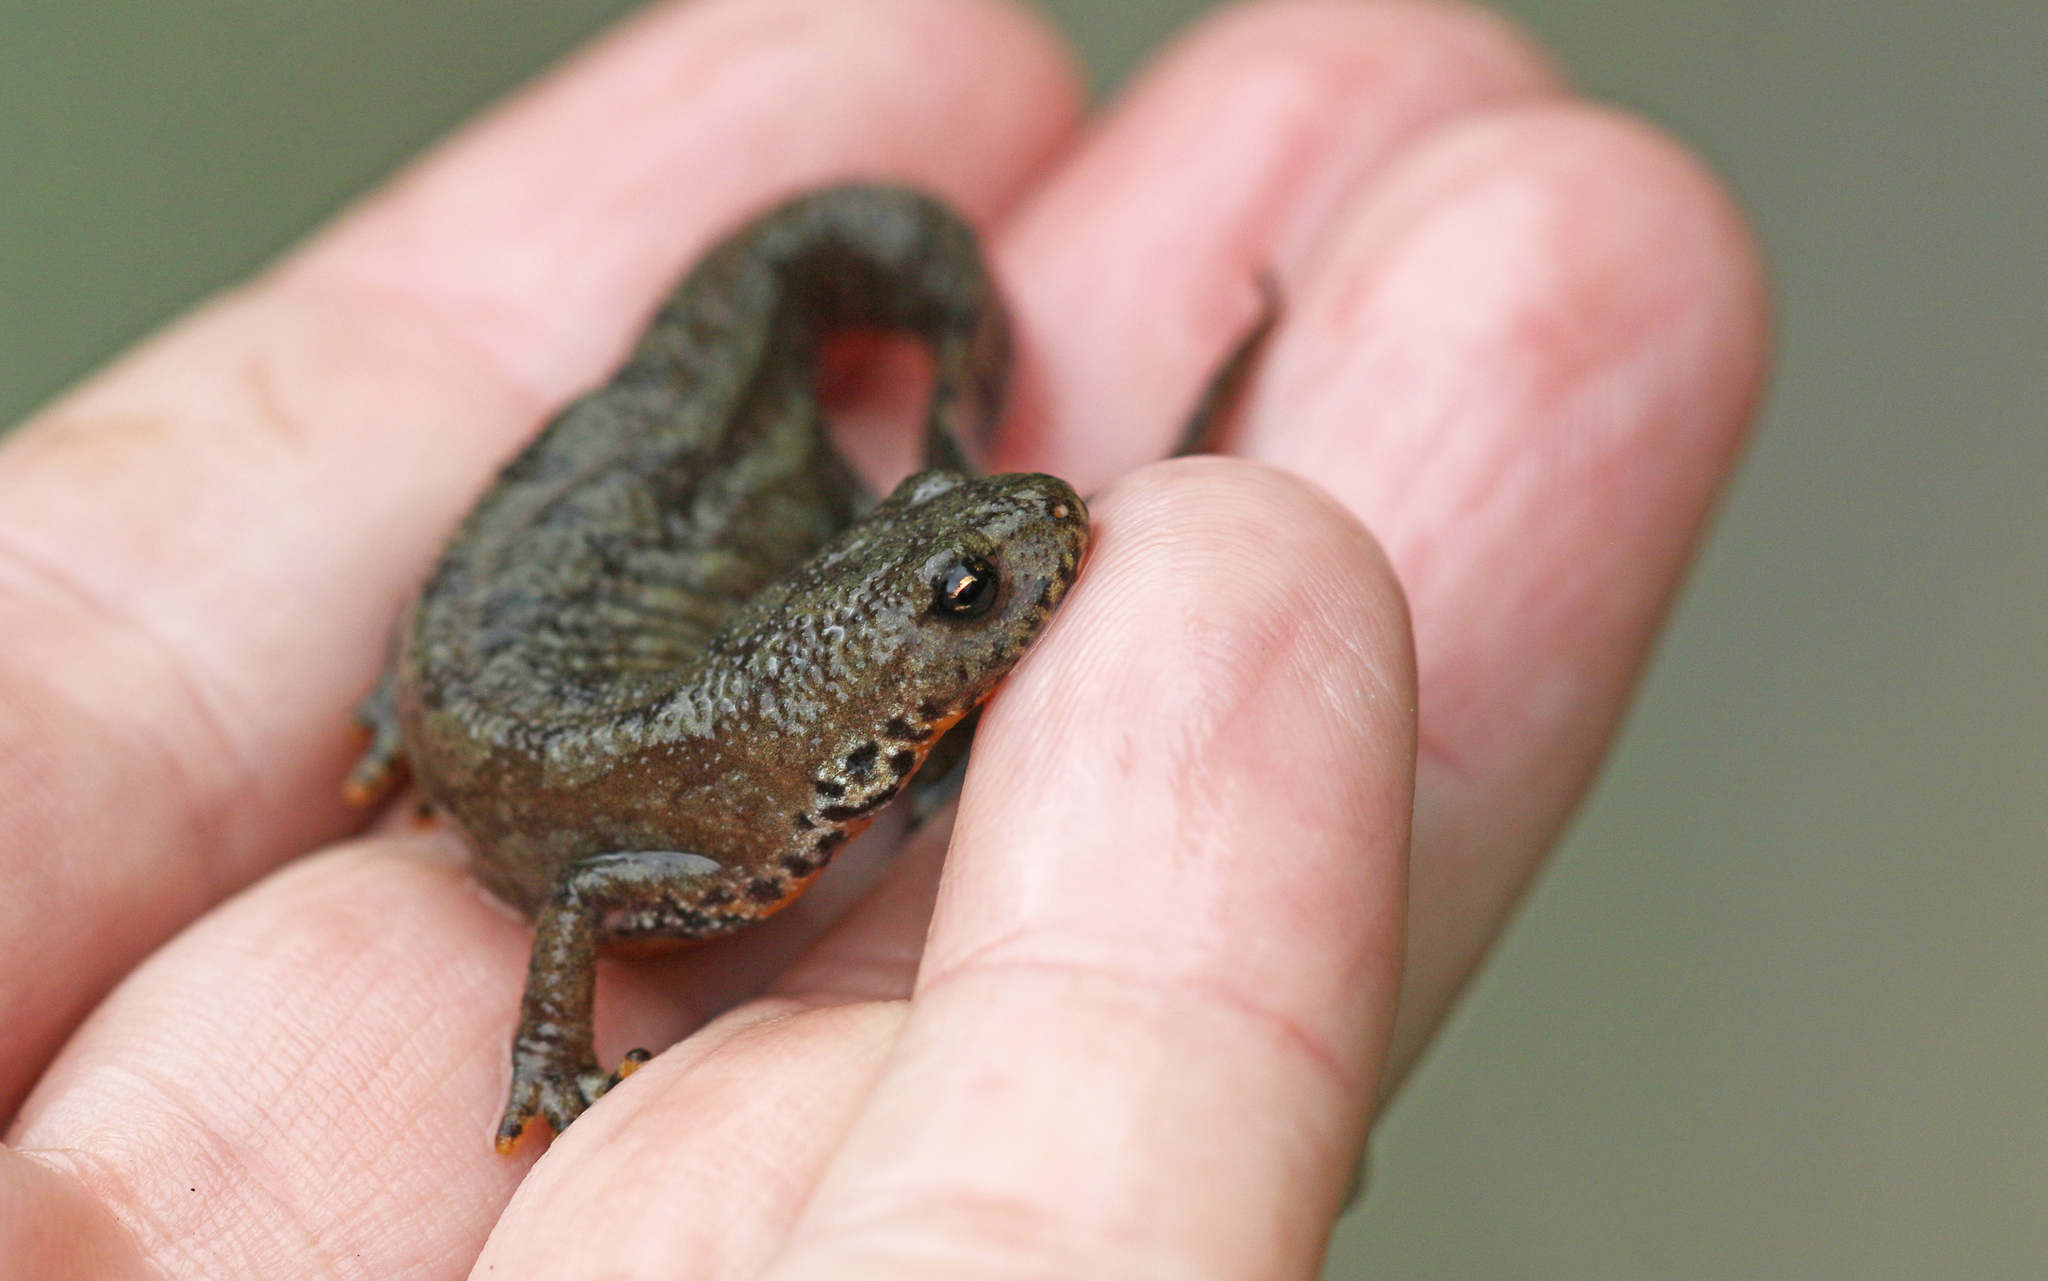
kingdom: Animalia
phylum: Chordata
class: Amphibia
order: Caudata
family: Salamandridae
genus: Ichthyosaura
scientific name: Ichthyosaura alpestris
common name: Alpine newt
